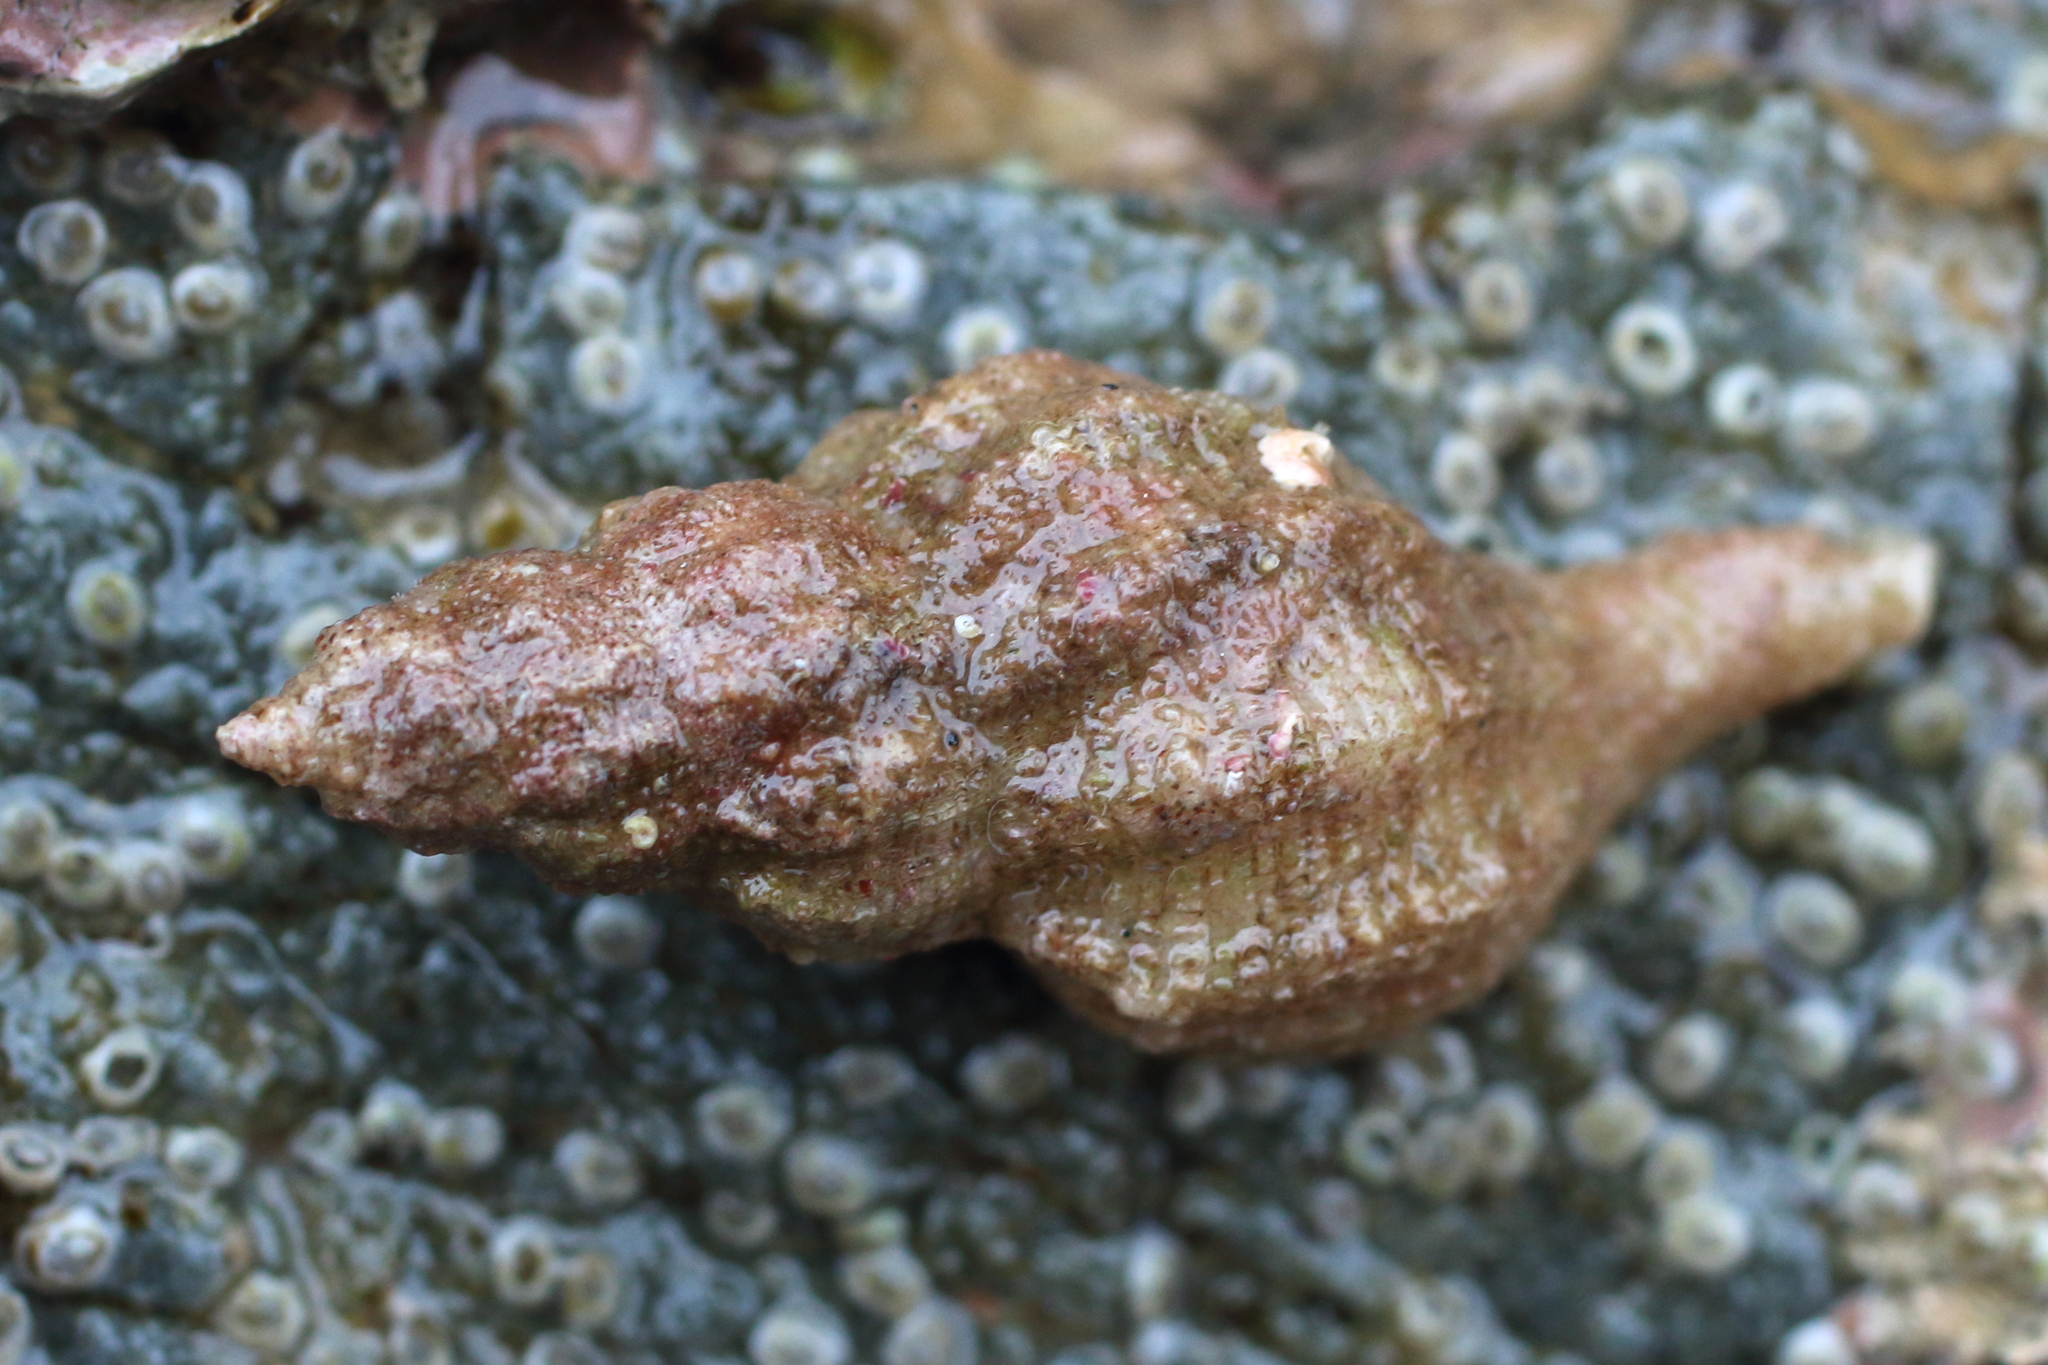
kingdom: Animalia
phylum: Mollusca
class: Gastropoda
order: Neogastropoda
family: Muricidae
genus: Scabrotrophon
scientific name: Scabrotrophon maltzani
